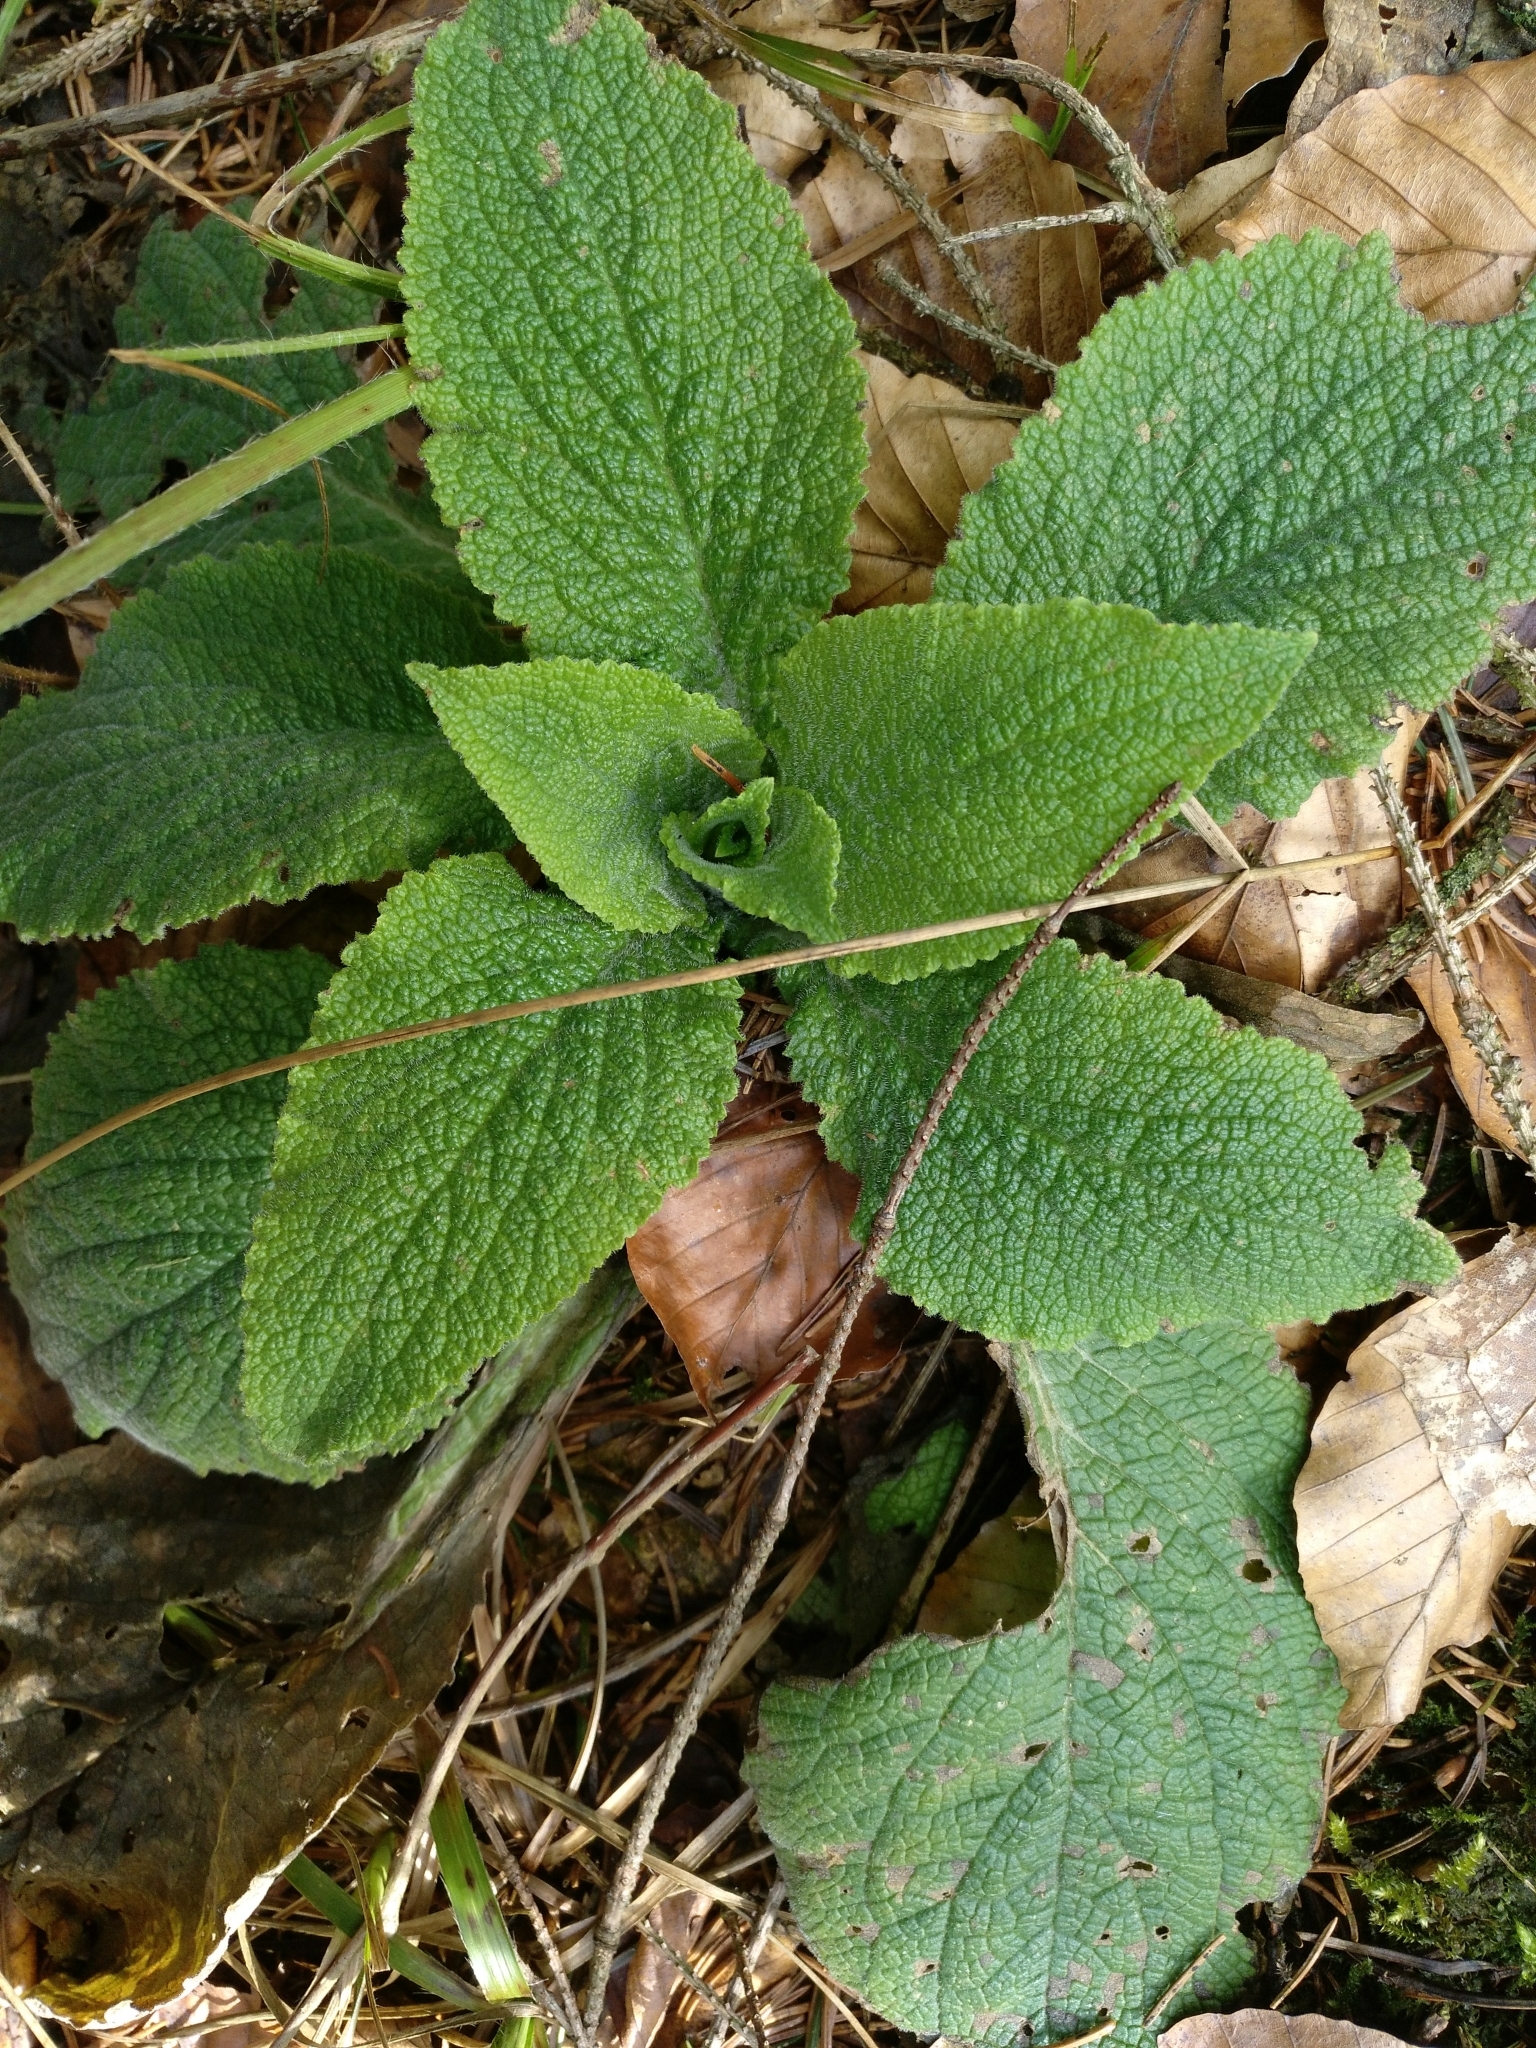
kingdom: Plantae
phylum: Tracheophyta
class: Magnoliopsida
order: Lamiales
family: Plantaginaceae
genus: Digitalis
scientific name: Digitalis purpurea
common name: Foxglove
